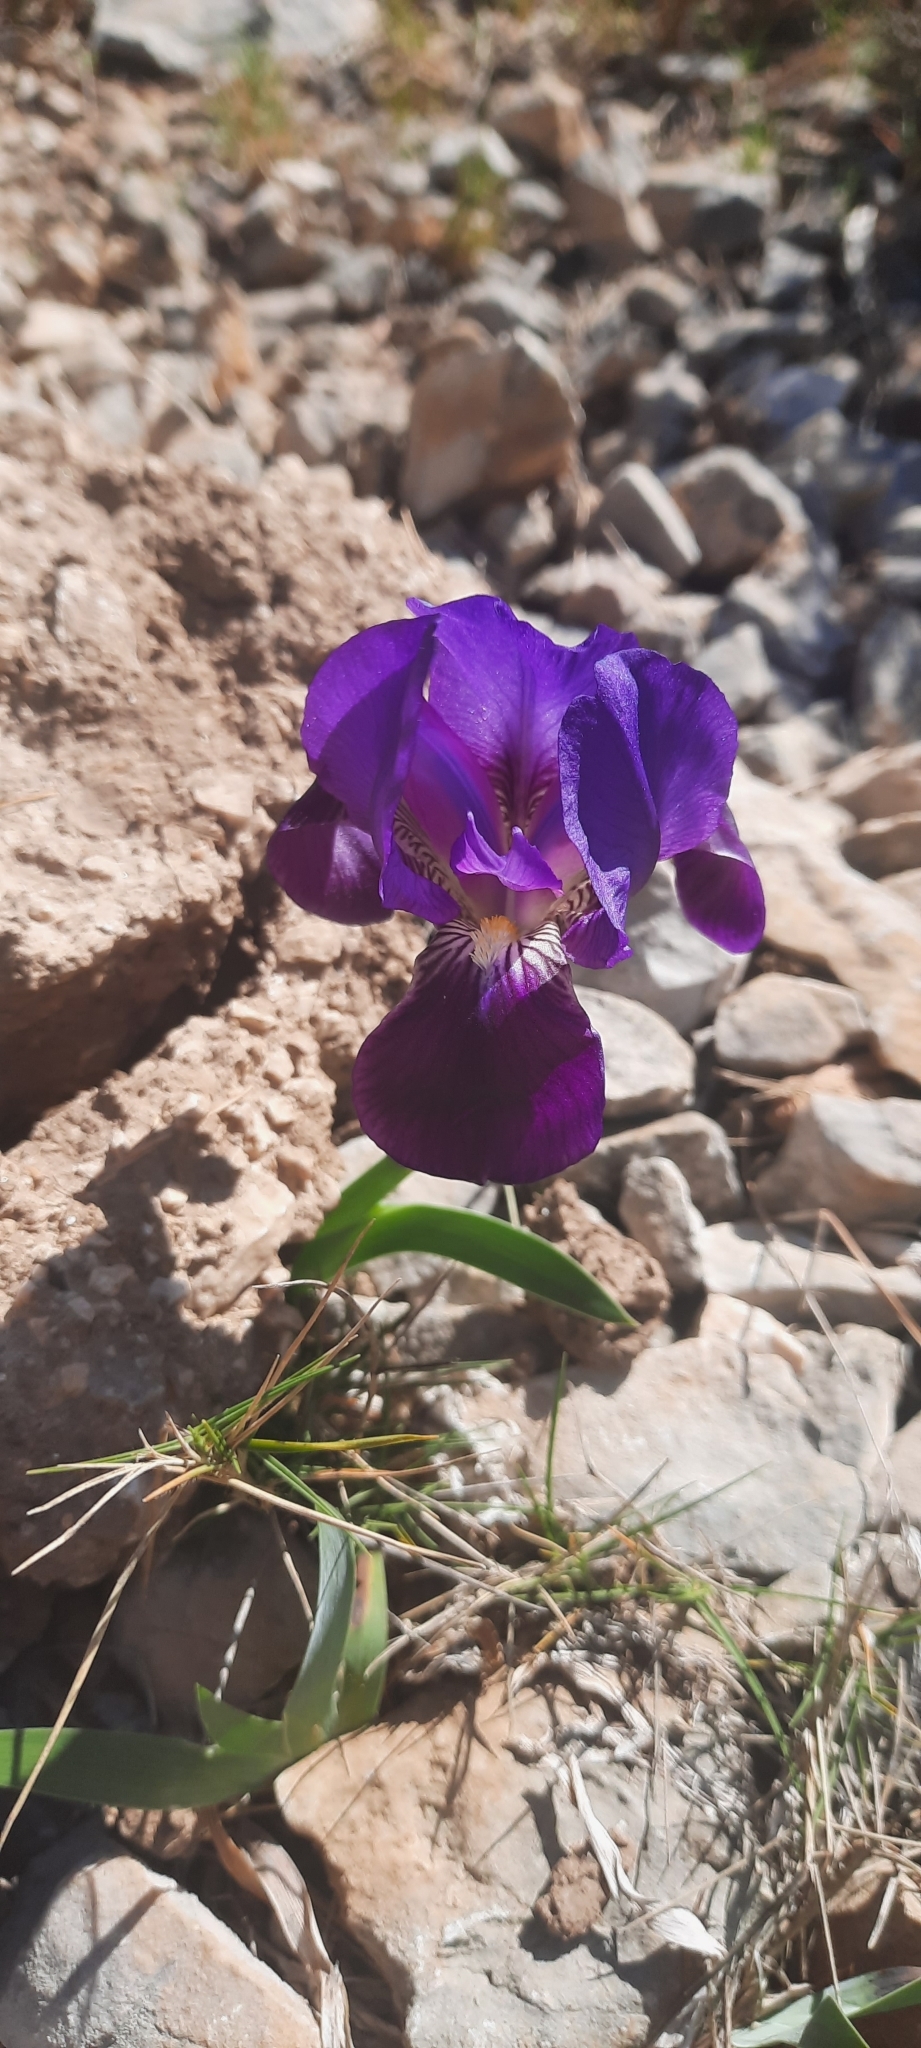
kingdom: Plantae
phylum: Tracheophyta
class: Liliopsida
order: Asparagales
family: Iridaceae
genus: Iris
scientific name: Iris lutescens
